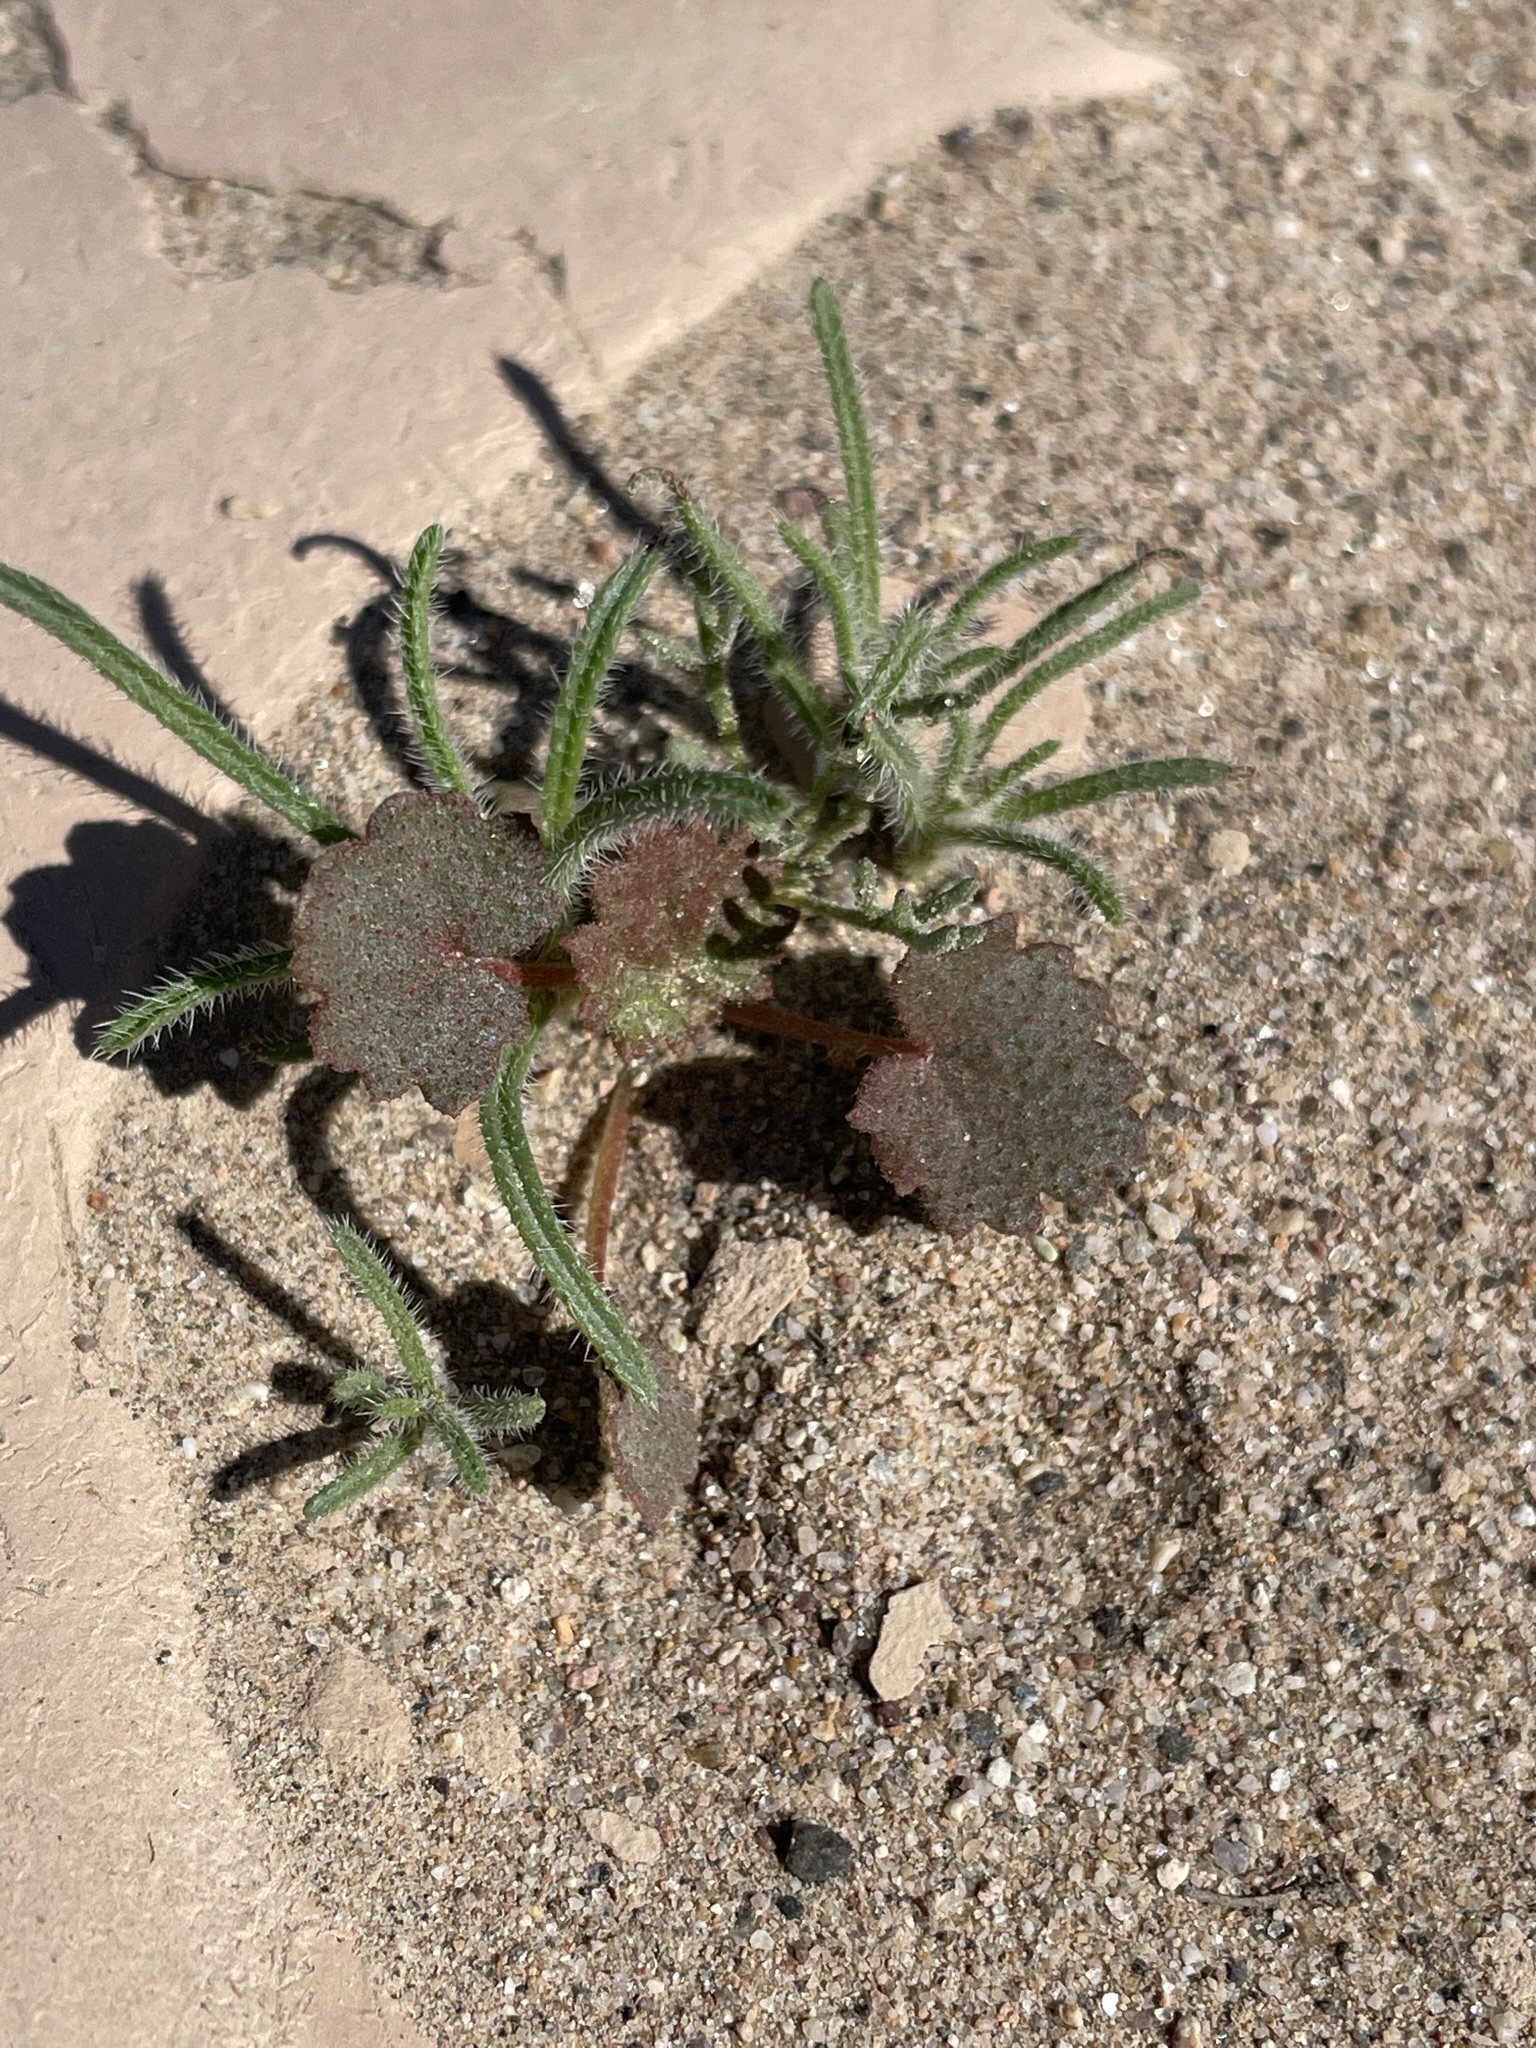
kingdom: Plantae
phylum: Tracheophyta
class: Magnoliopsida
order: Malvales
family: Malvaceae
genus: Eremalche
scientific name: Eremalche rotundifolia
